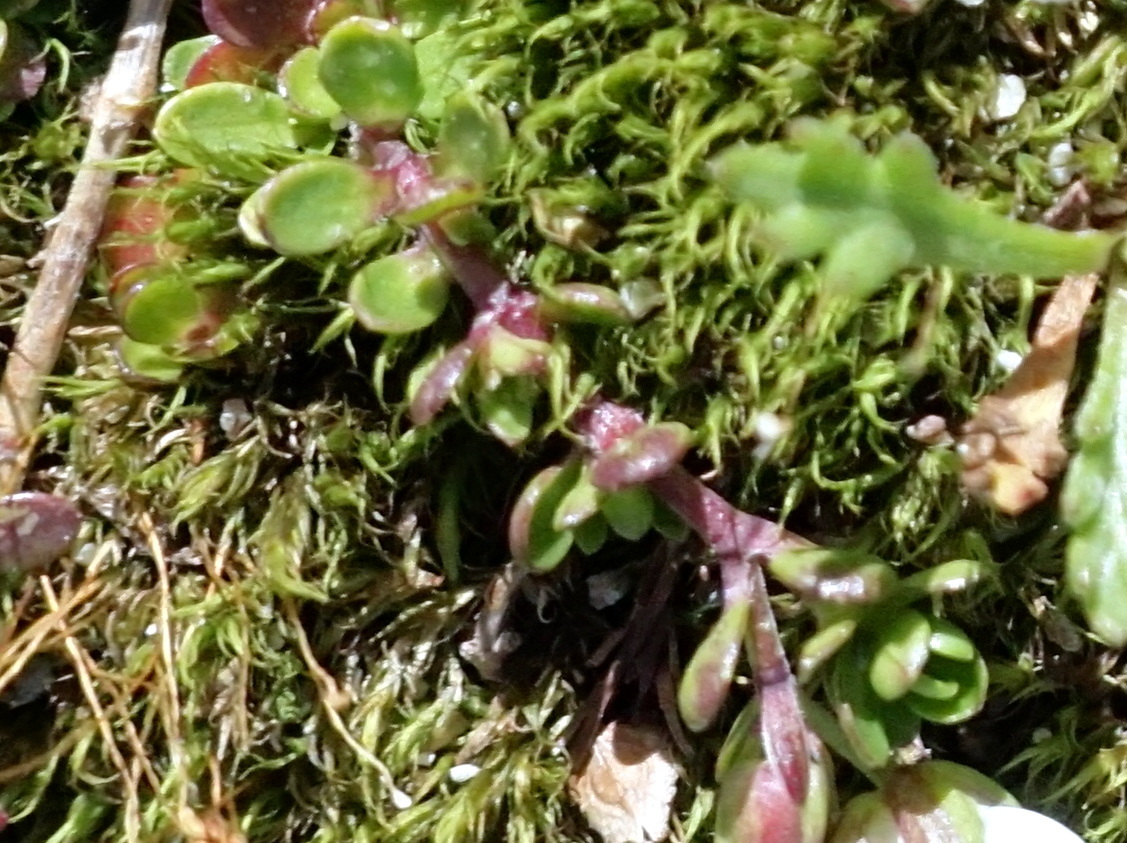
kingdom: Plantae
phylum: Tracheophyta
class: Magnoliopsida
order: Caryophyllales
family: Caryophyllaceae
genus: Arenaria
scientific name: Arenaria biflora
